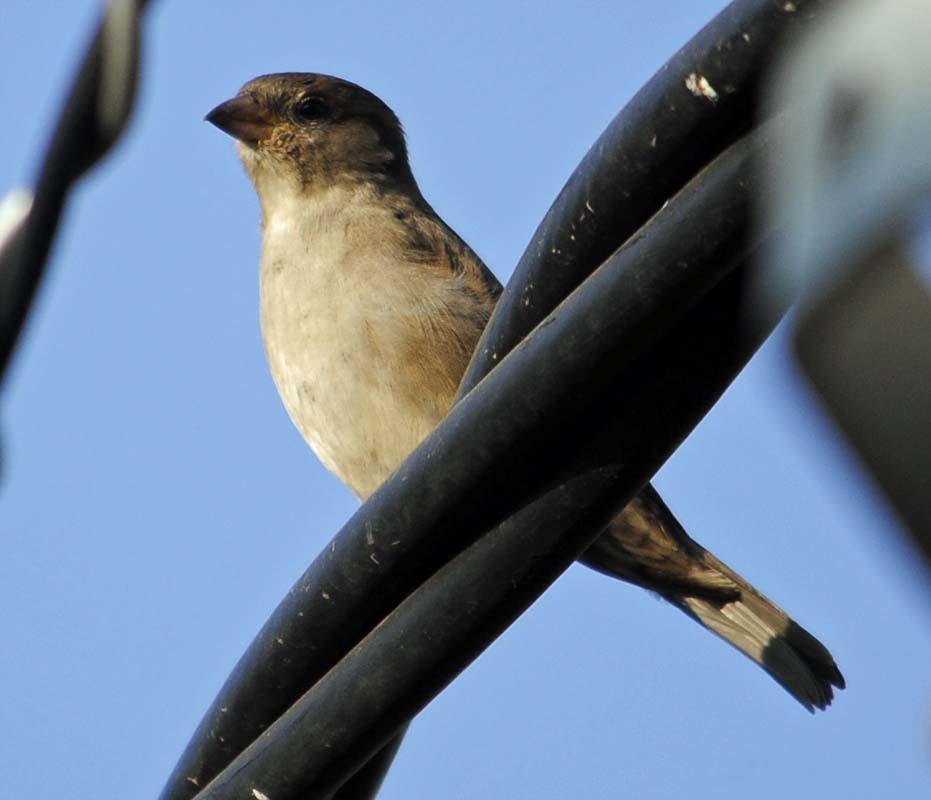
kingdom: Animalia
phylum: Chordata
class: Aves
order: Passeriformes
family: Passeridae
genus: Passer
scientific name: Passer domesticus
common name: House sparrow
